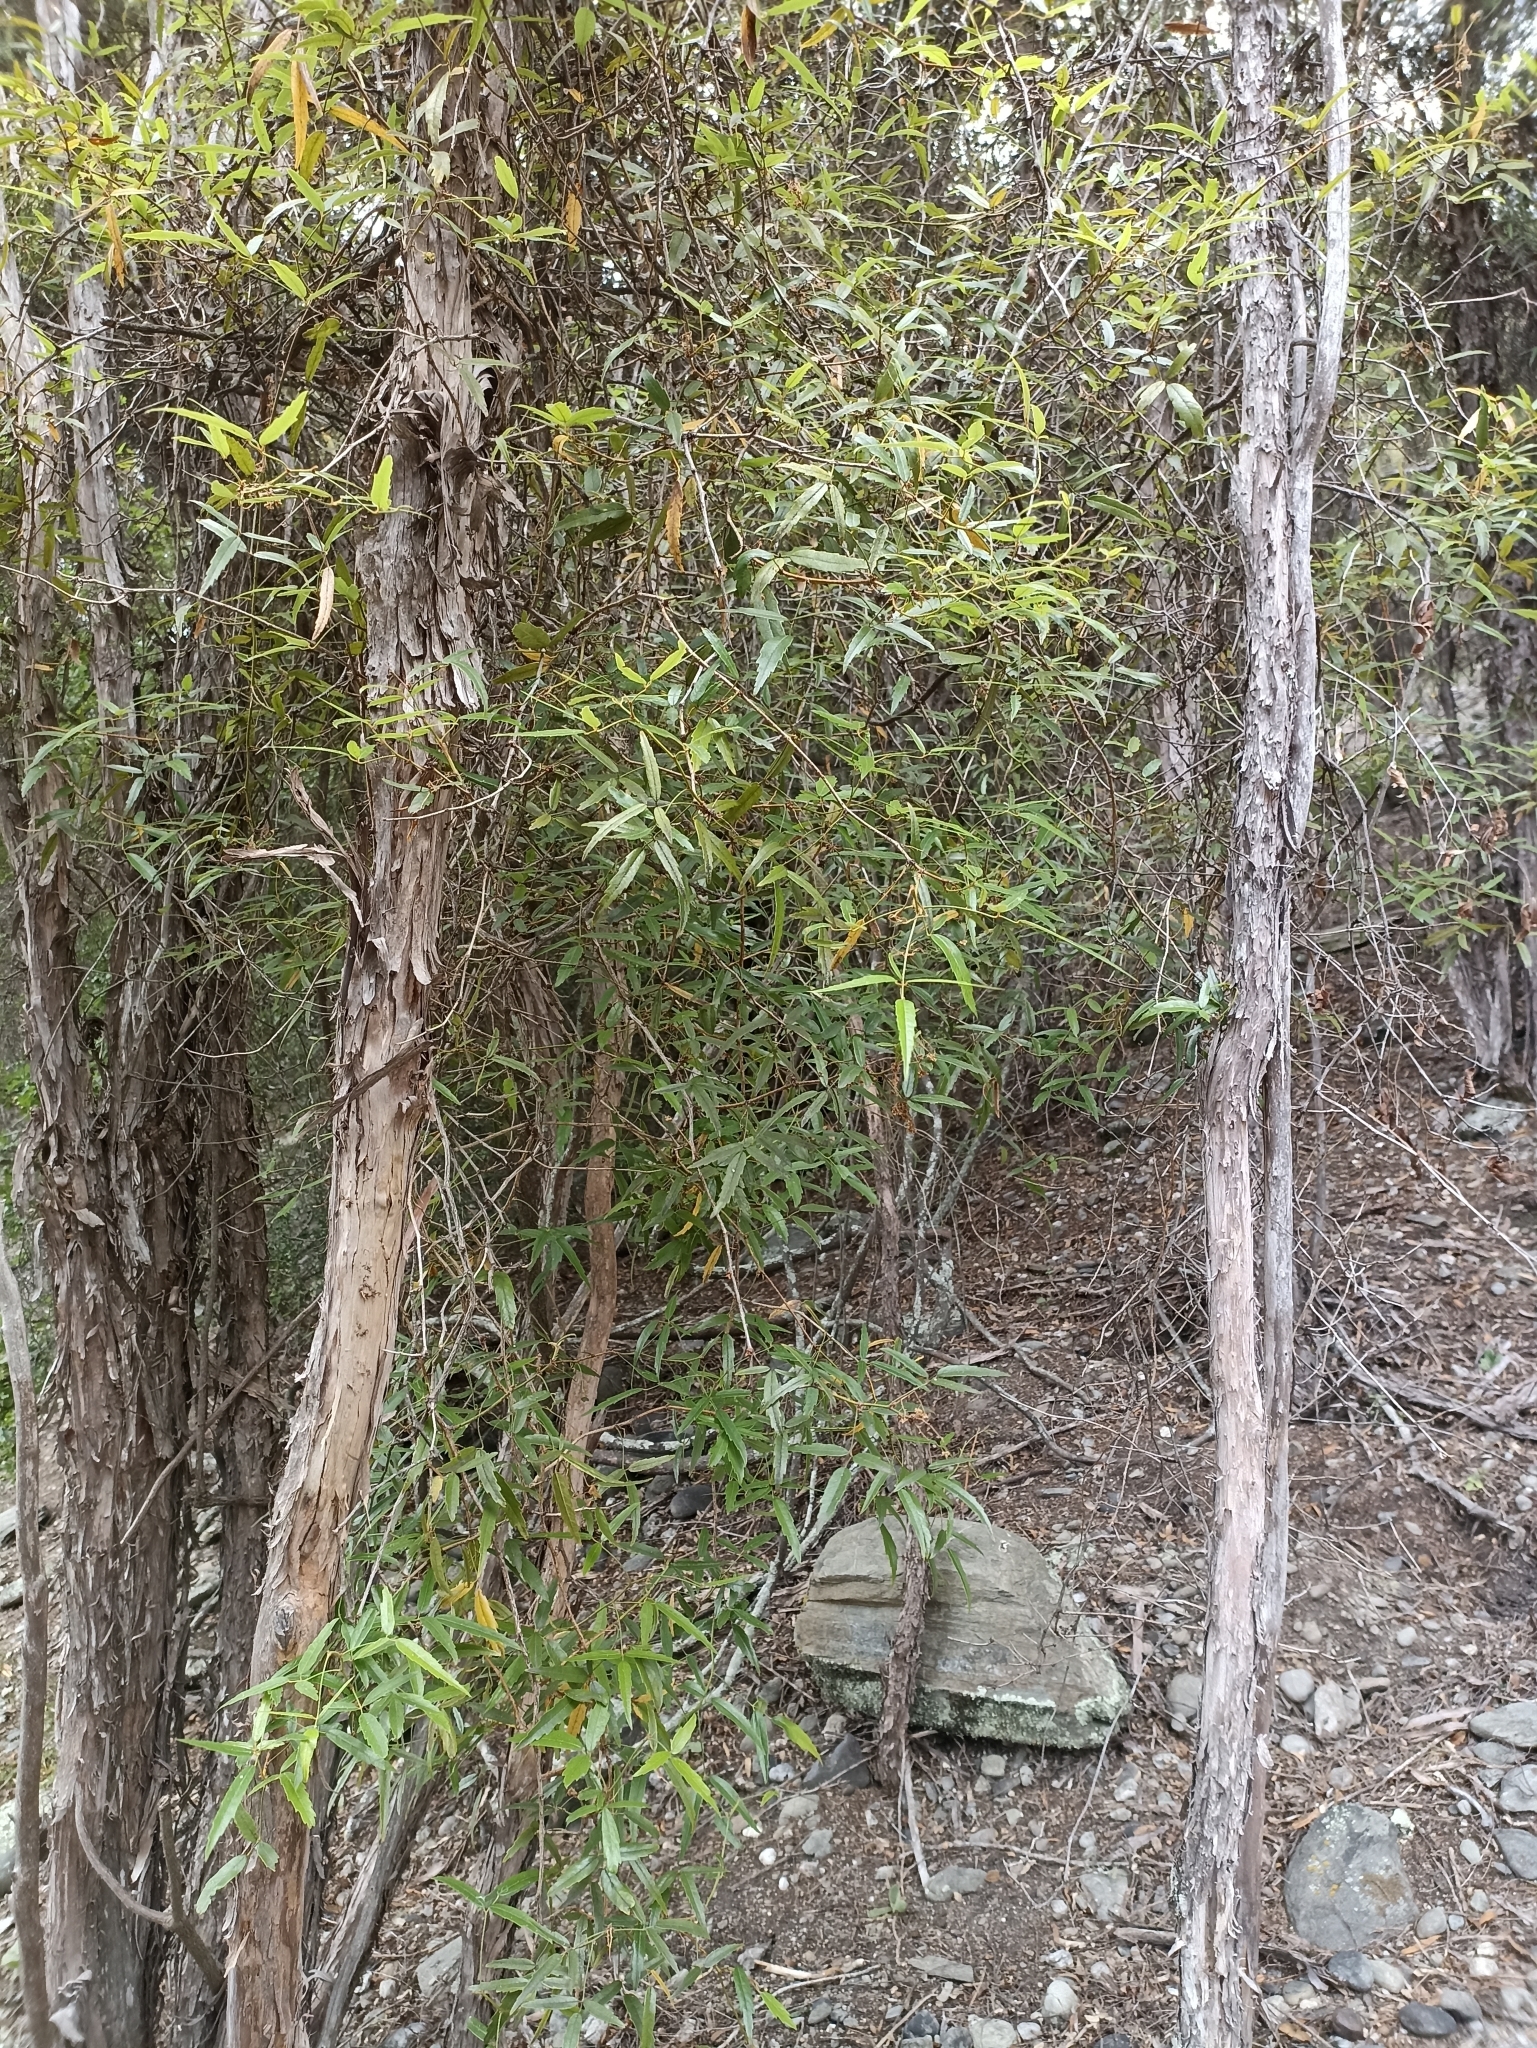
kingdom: Plantae
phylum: Tracheophyta
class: Magnoliopsida
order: Rosales
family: Rosaceae
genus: Rubus
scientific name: Rubus schmidelioides
